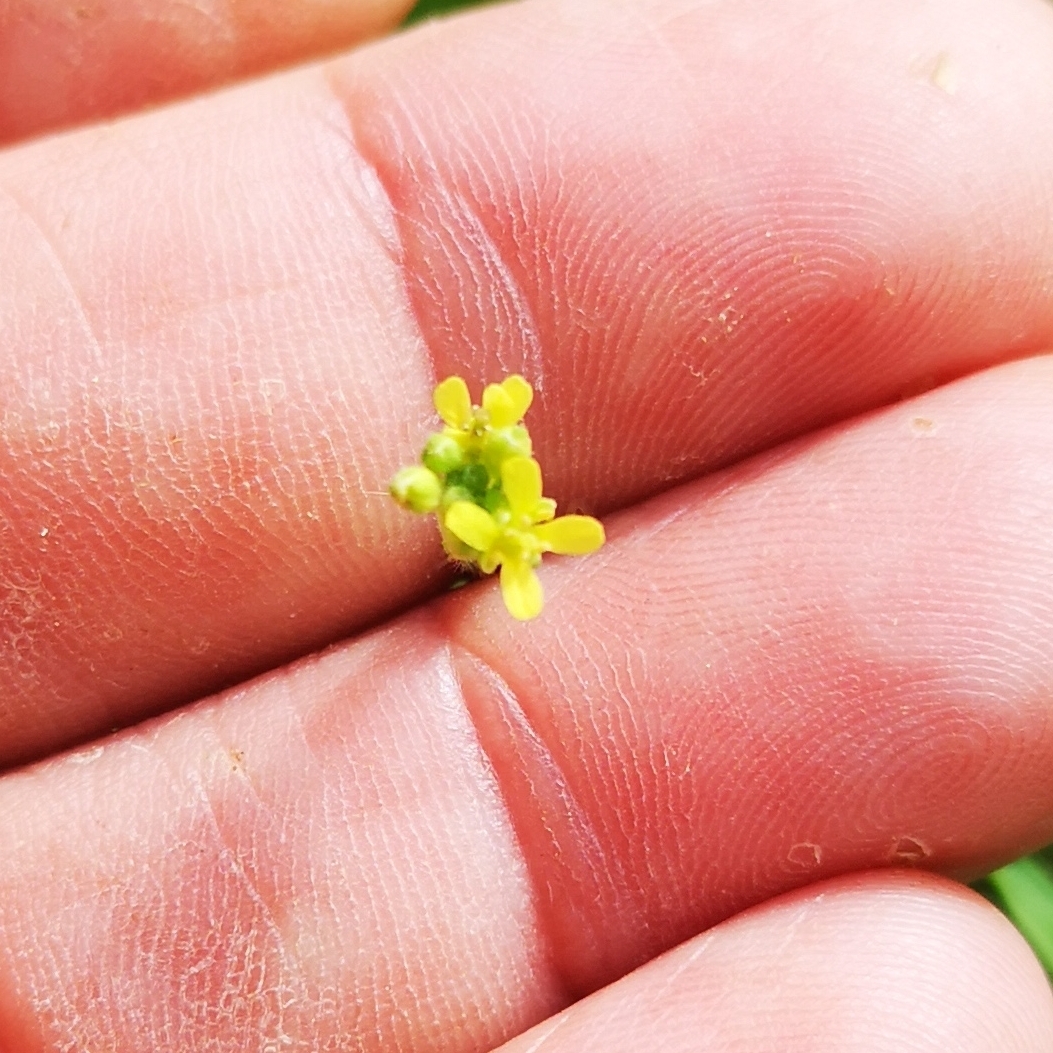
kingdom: Plantae
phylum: Tracheophyta
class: Magnoliopsida
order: Brassicales
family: Brassicaceae
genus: Sisymbrium
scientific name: Sisymbrium officinale
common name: Hedge mustard
